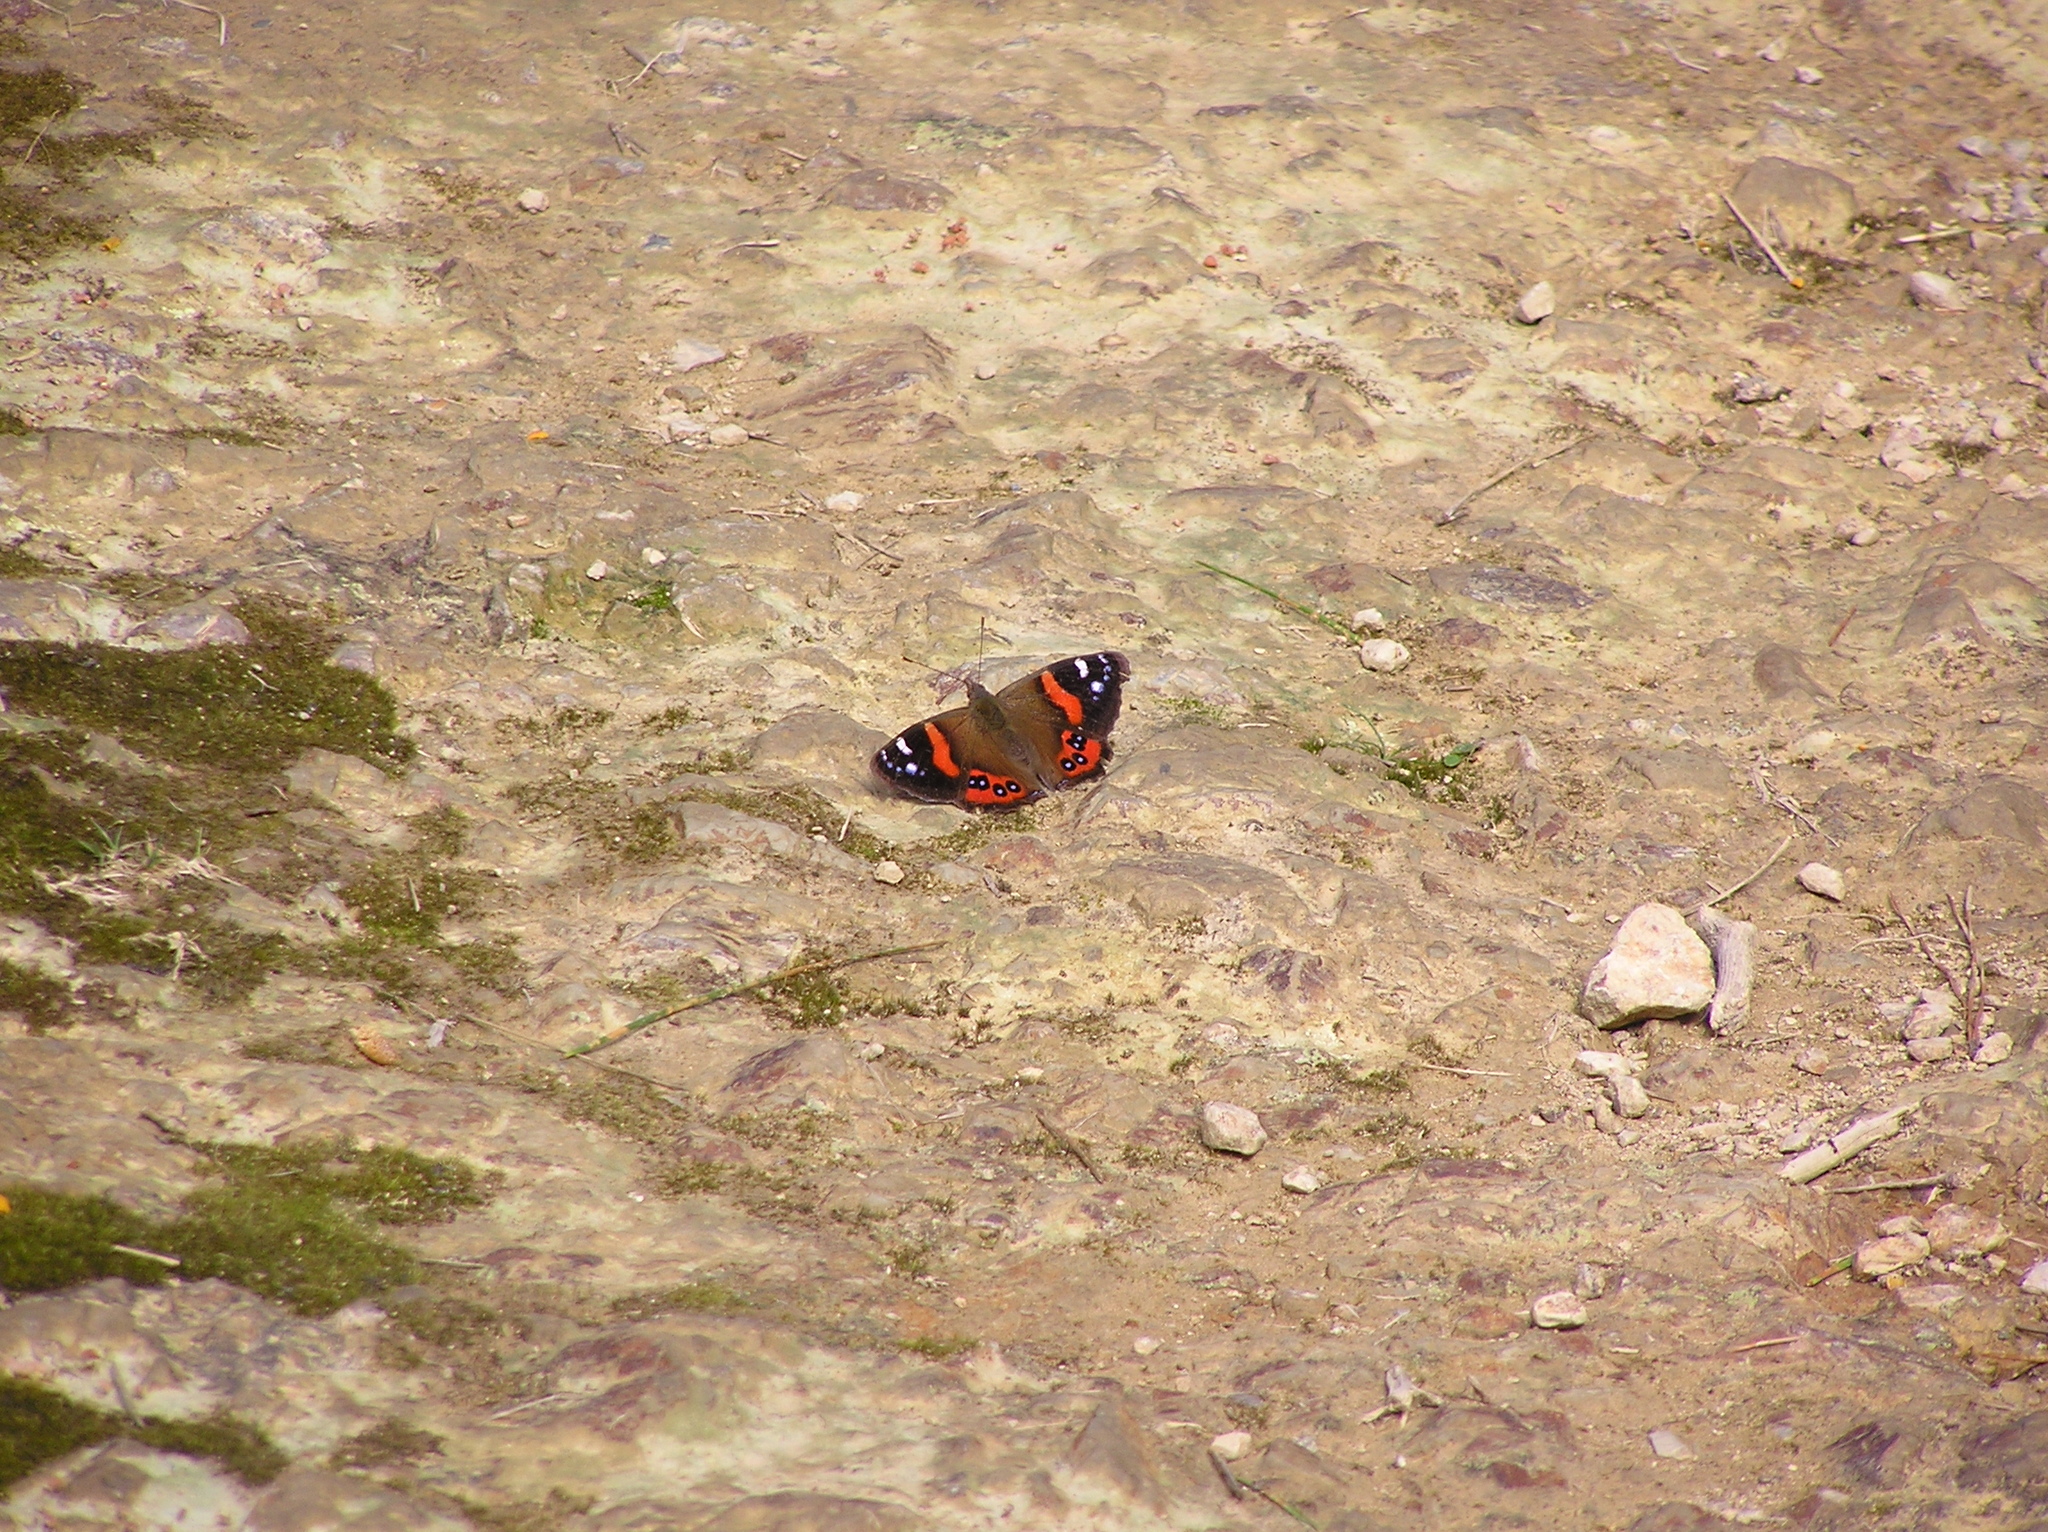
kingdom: Animalia
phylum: Arthropoda
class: Insecta
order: Lepidoptera
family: Nymphalidae
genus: Vanessa
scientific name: Vanessa gonerilla
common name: New zealand red admiral
